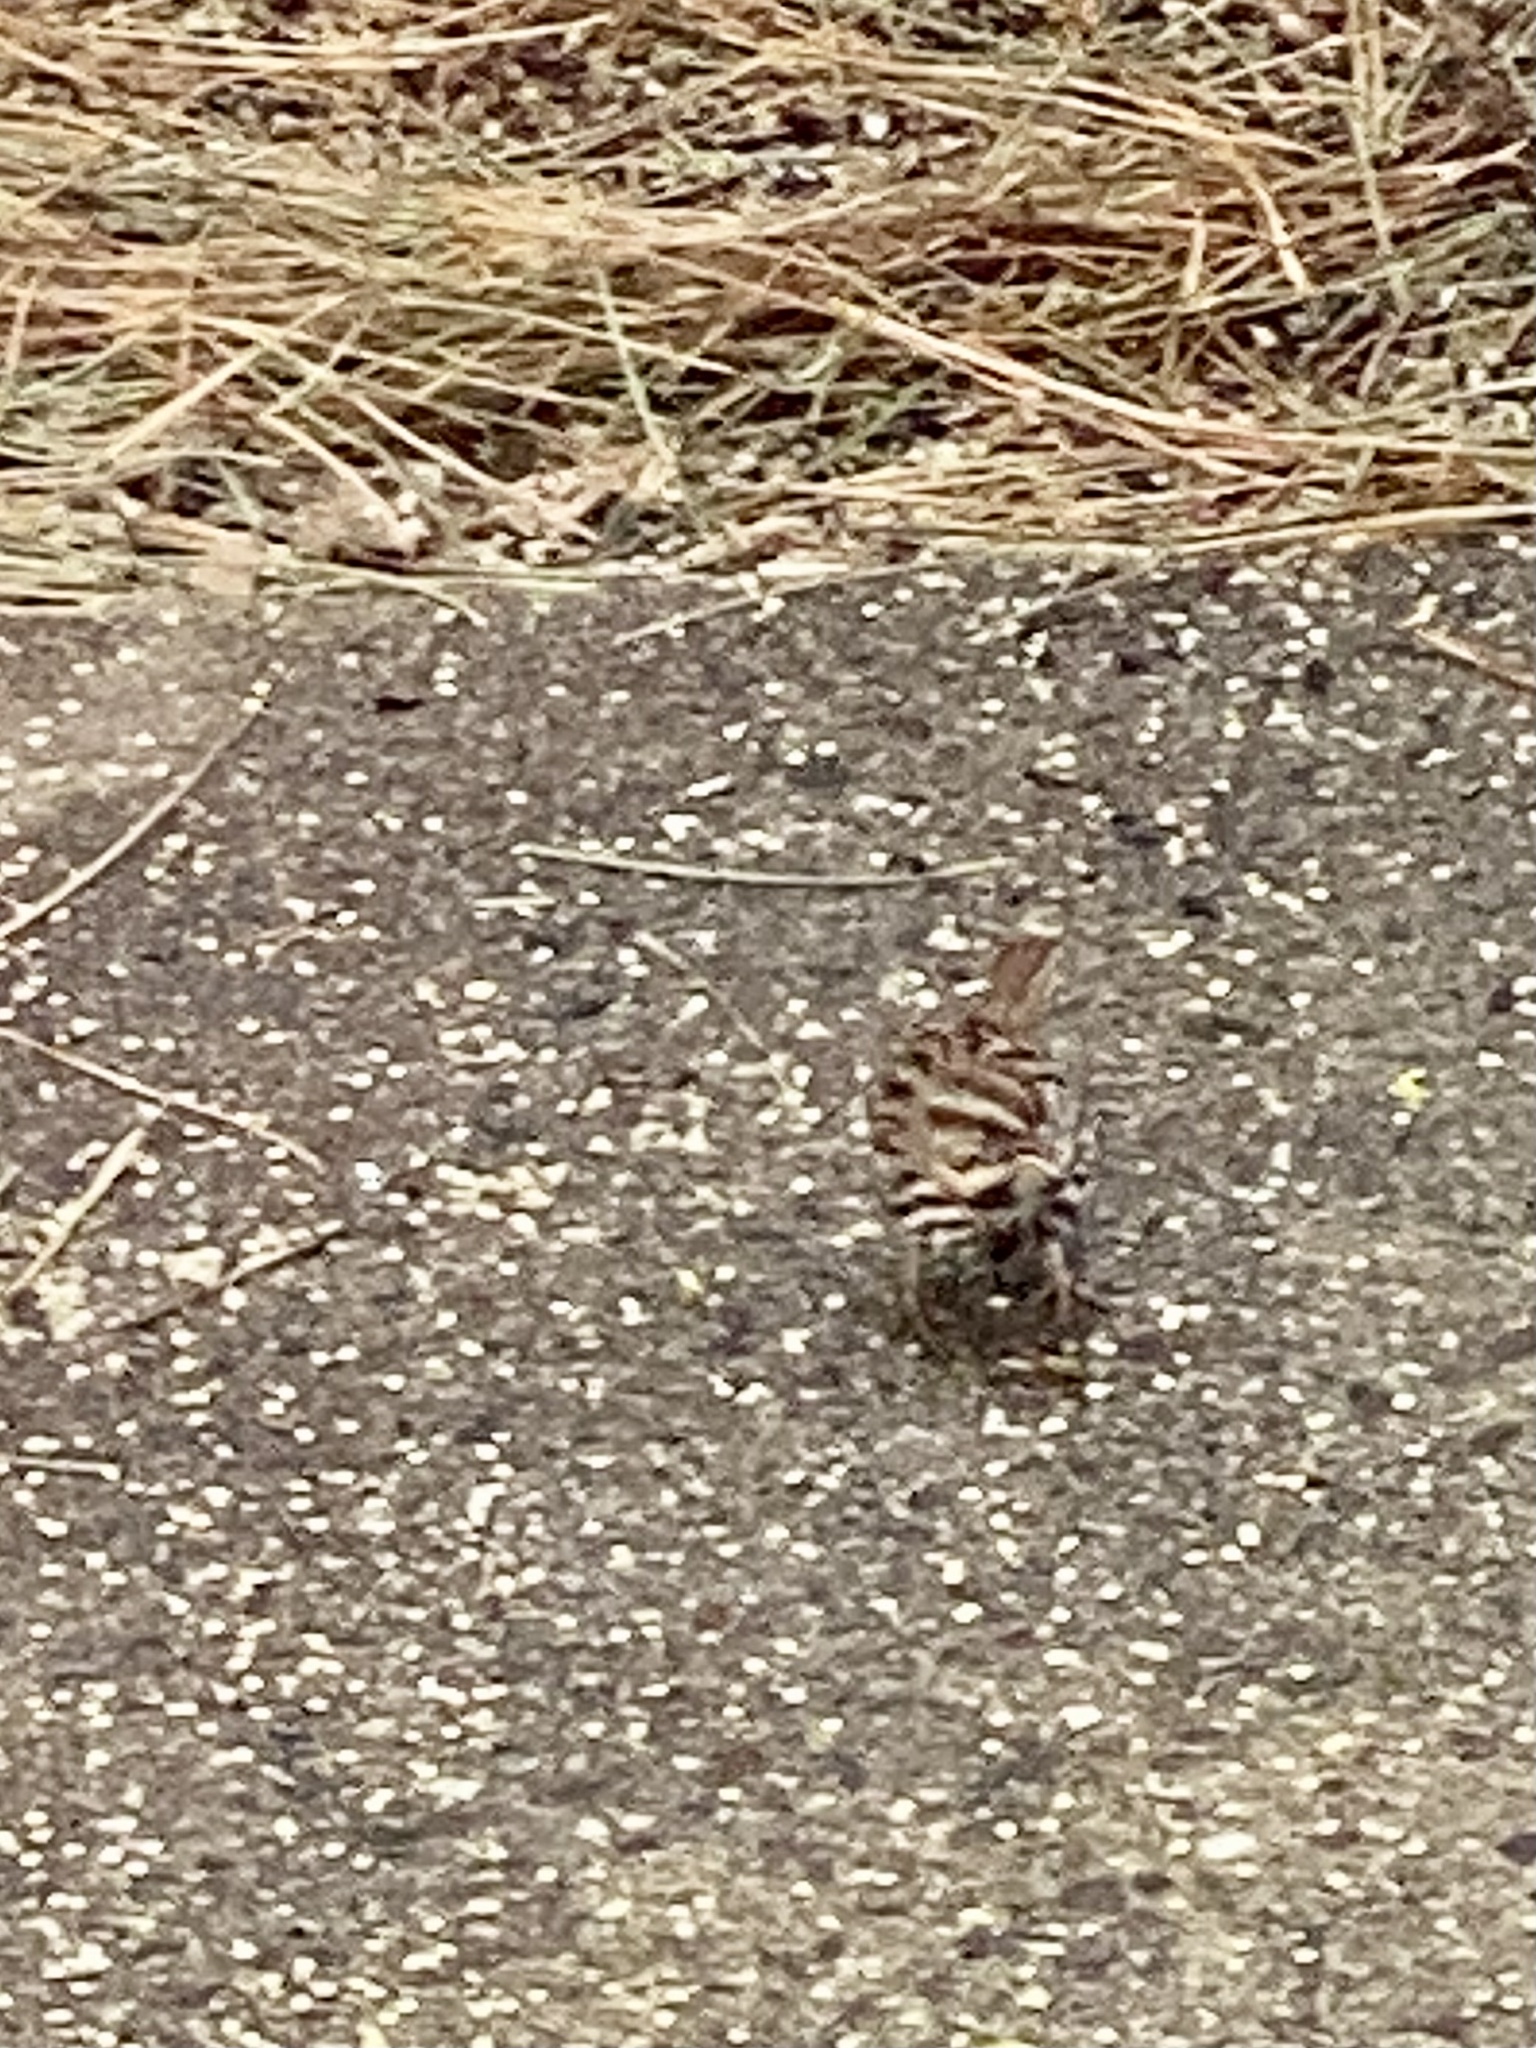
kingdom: Animalia
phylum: Chordata
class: Aves
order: Passeriformes
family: Passerellidae
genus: Melospiza
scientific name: Melospiza melodia
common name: Song sparrow
